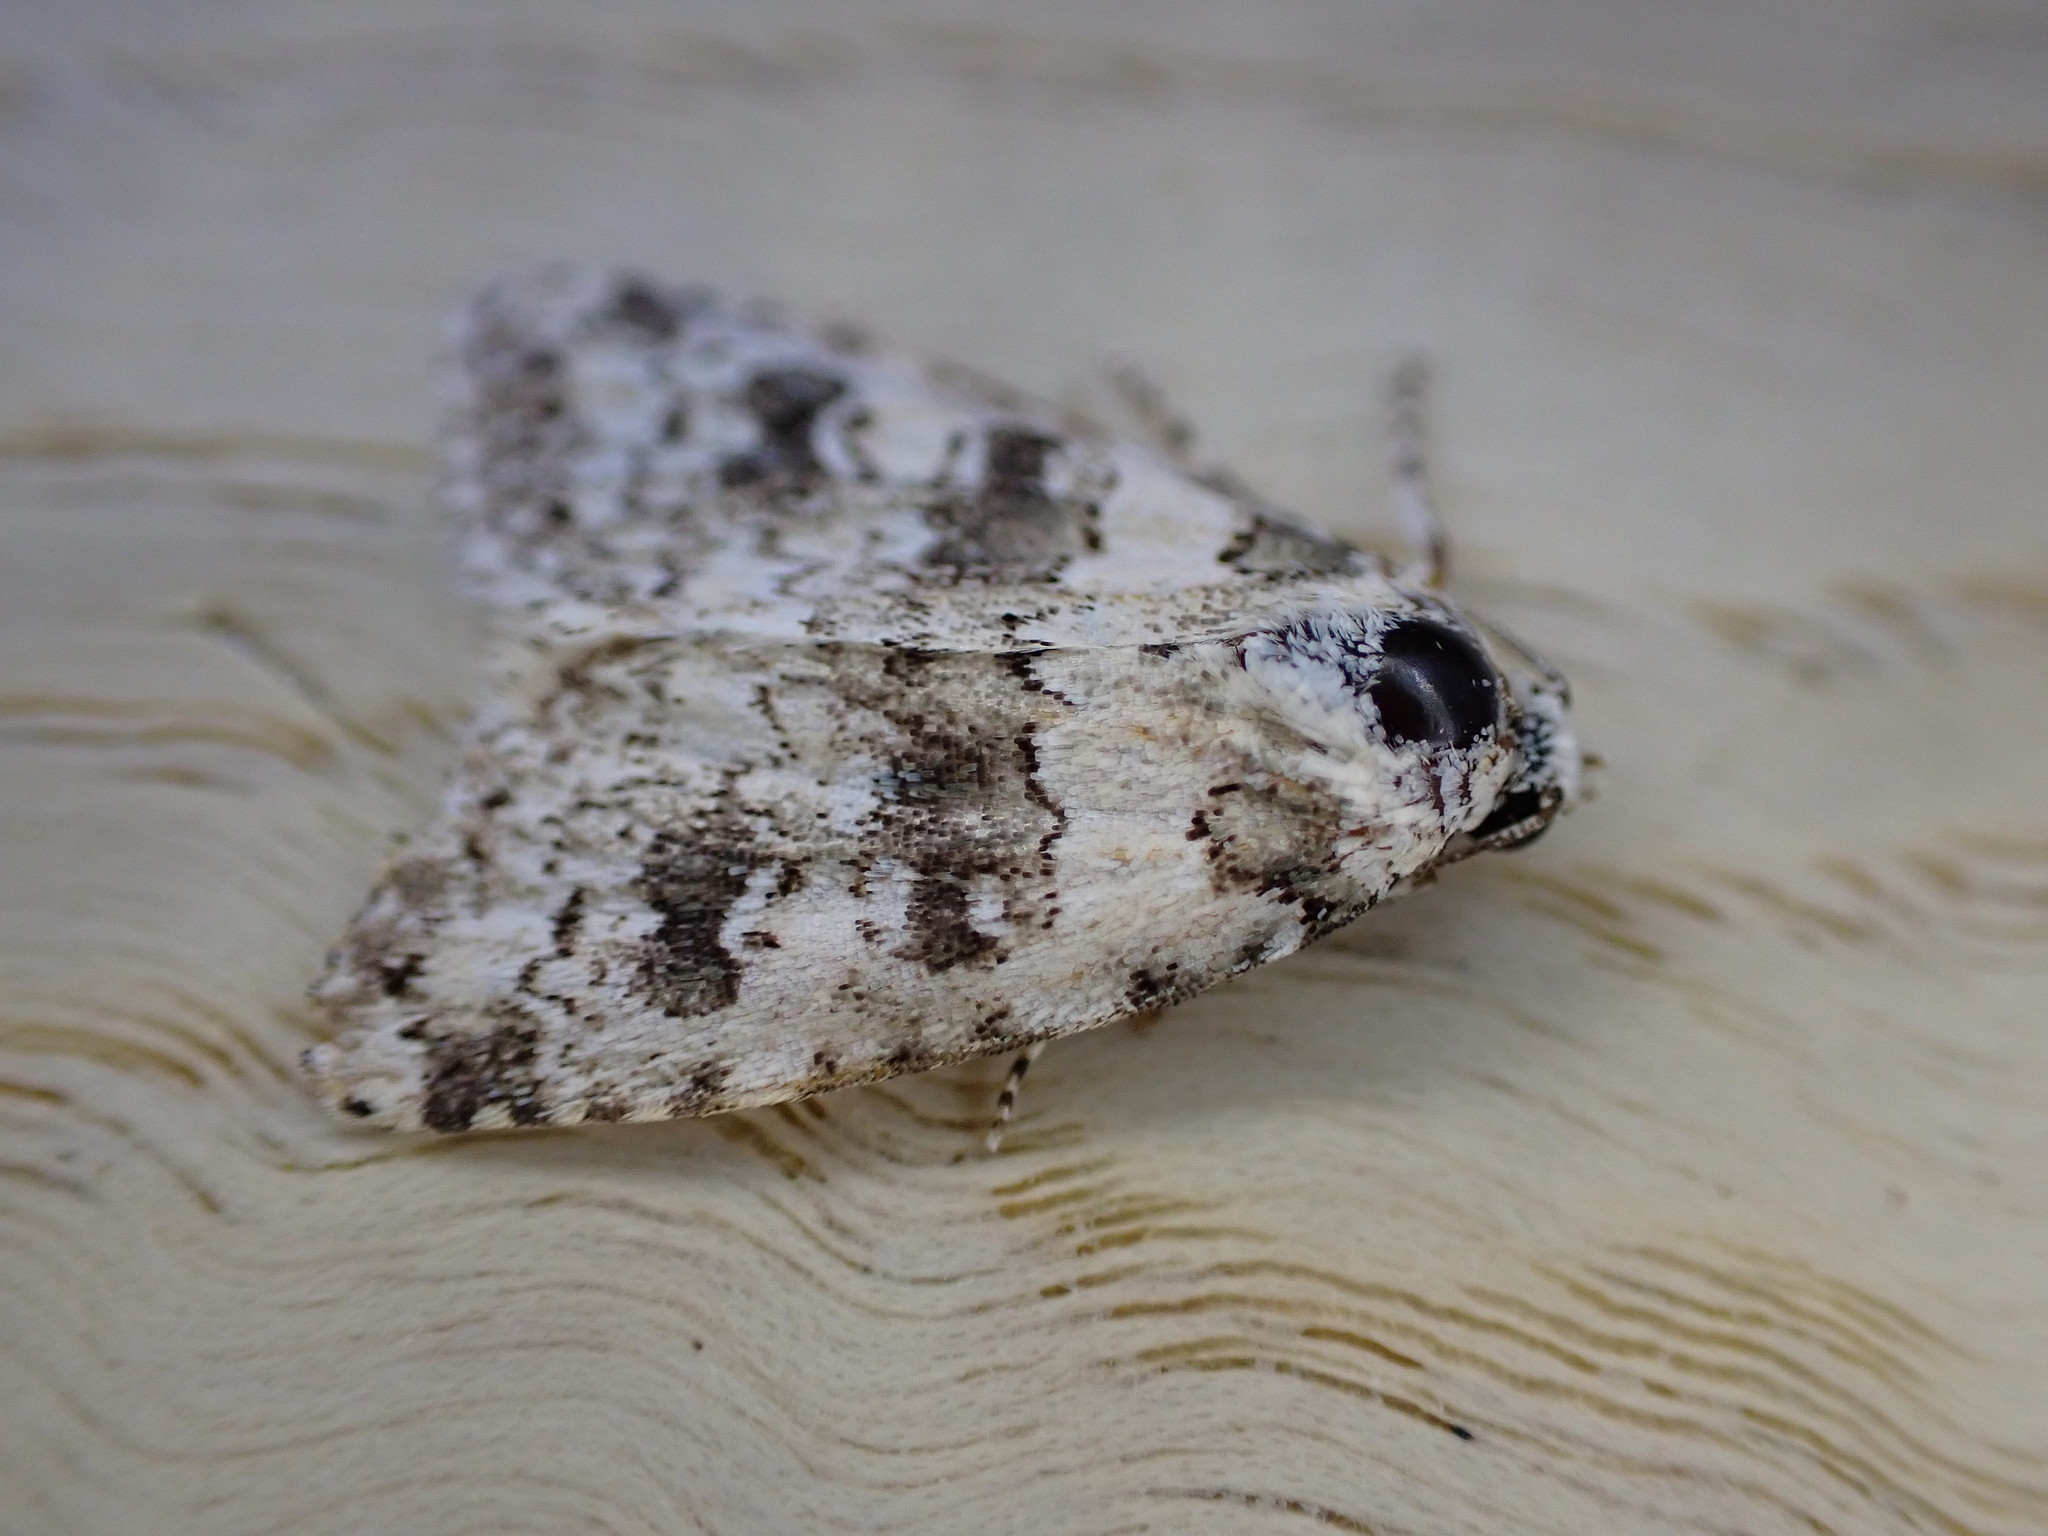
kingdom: Animalia
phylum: Arthropoda
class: Insecta
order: Lepidoptera
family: Noctuidae
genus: Bryophila
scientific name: Bryophila domestica
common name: Marbled beauty
